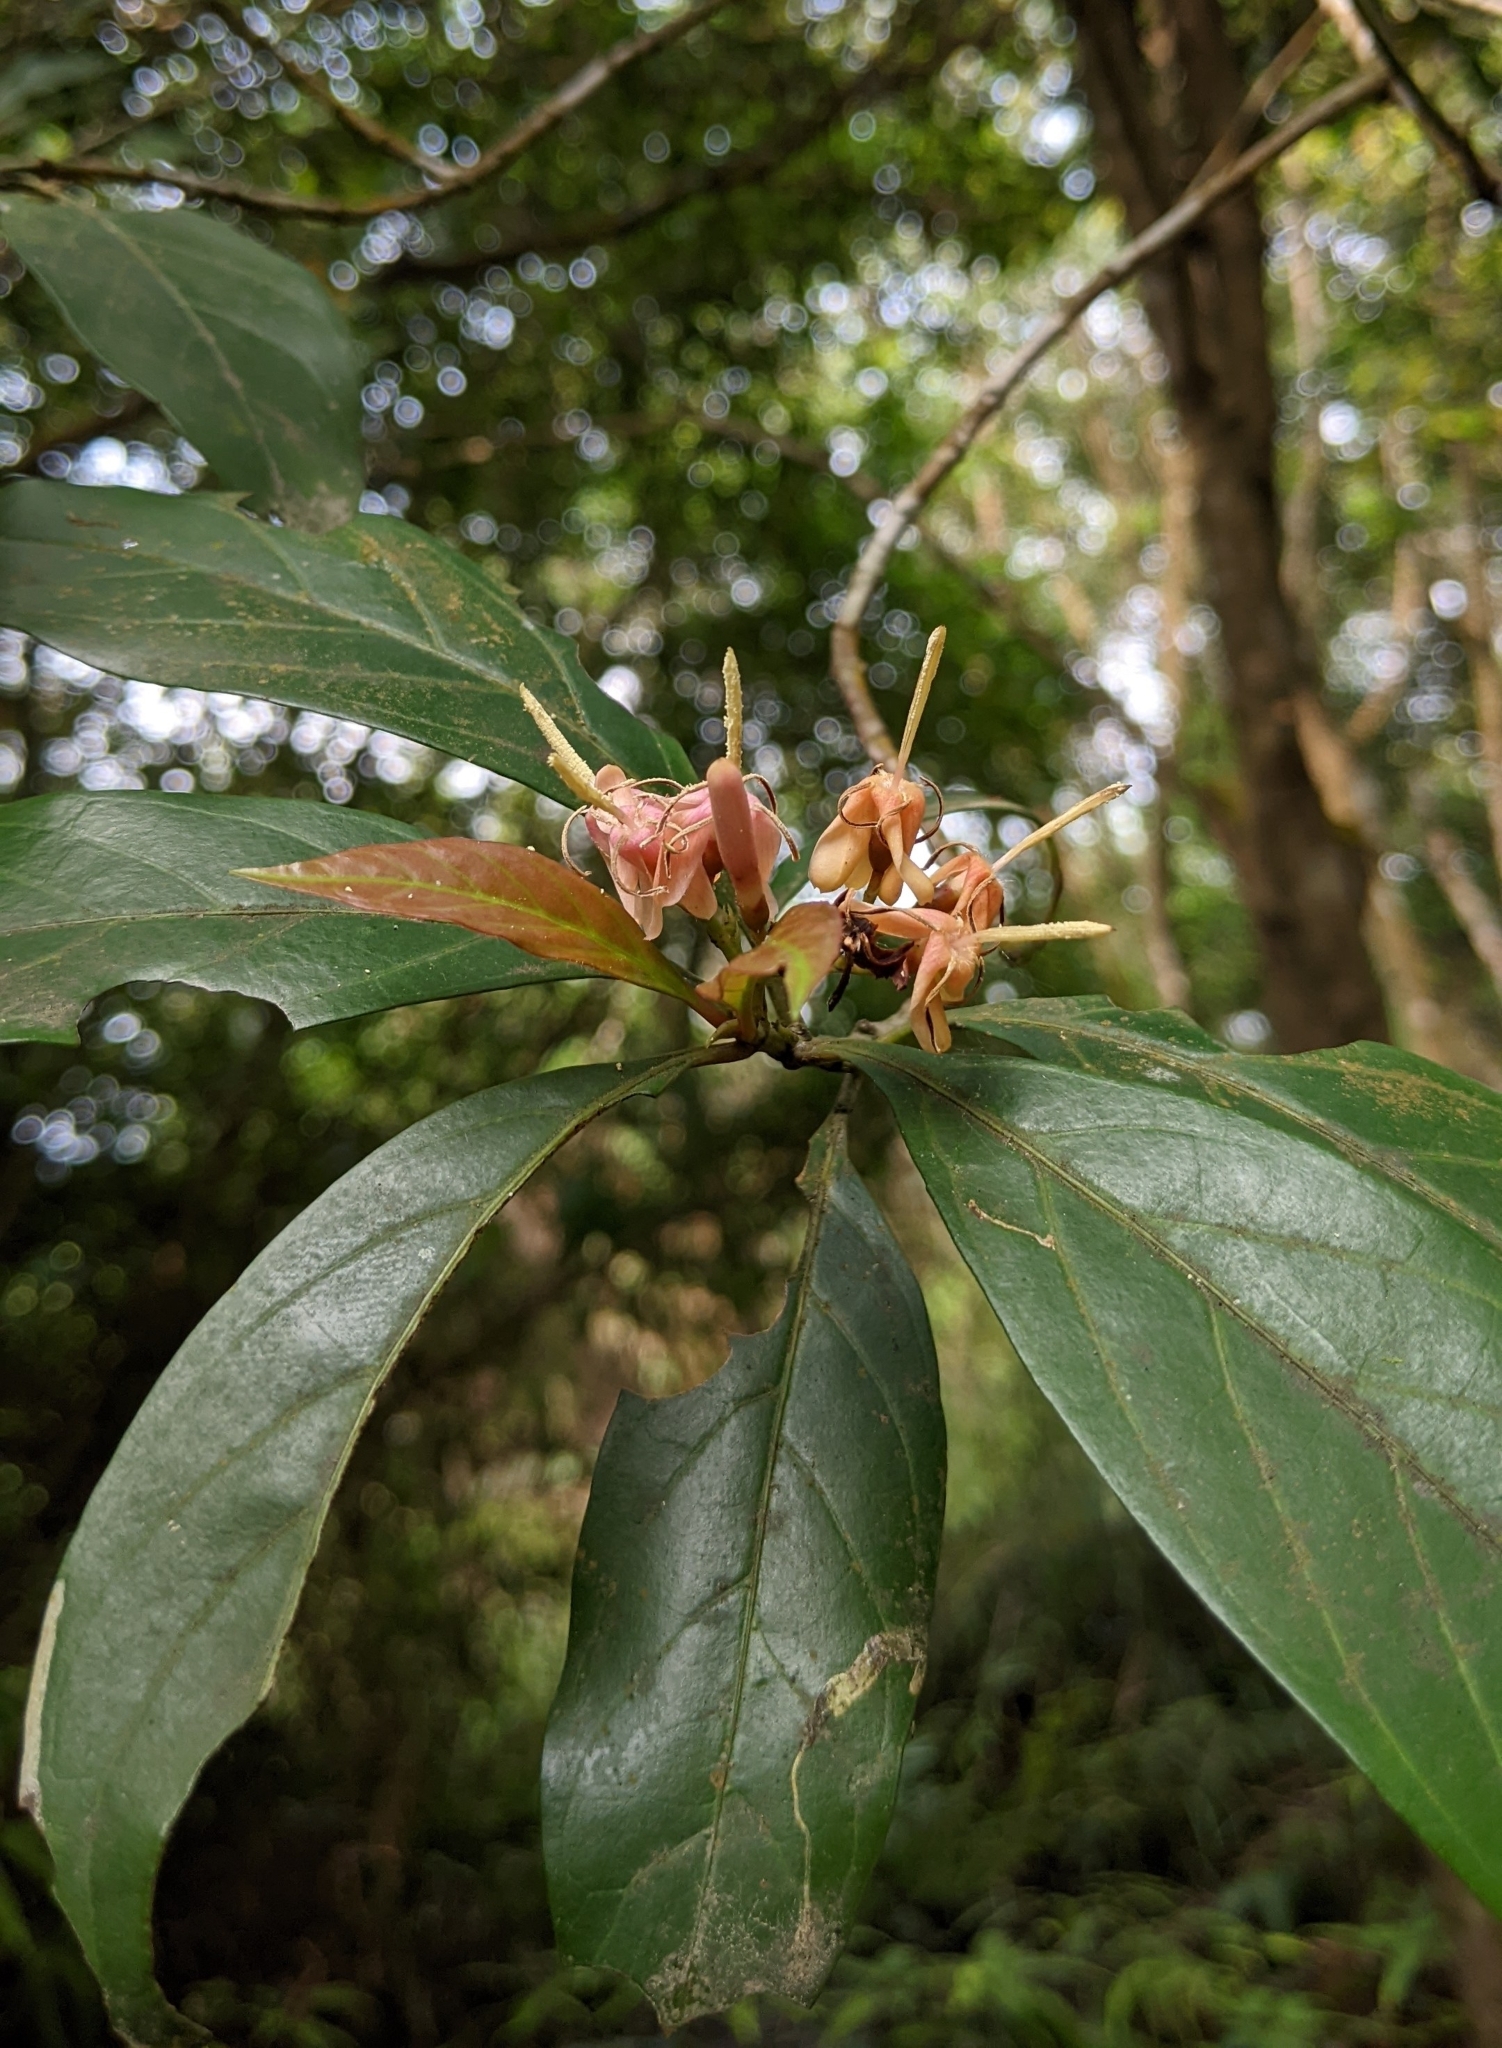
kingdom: Plantae
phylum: Tracheophyta
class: Magnoliopsida
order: Gentianales
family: Rubiaceae
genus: Aidia
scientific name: Aidia cochinchinensis
